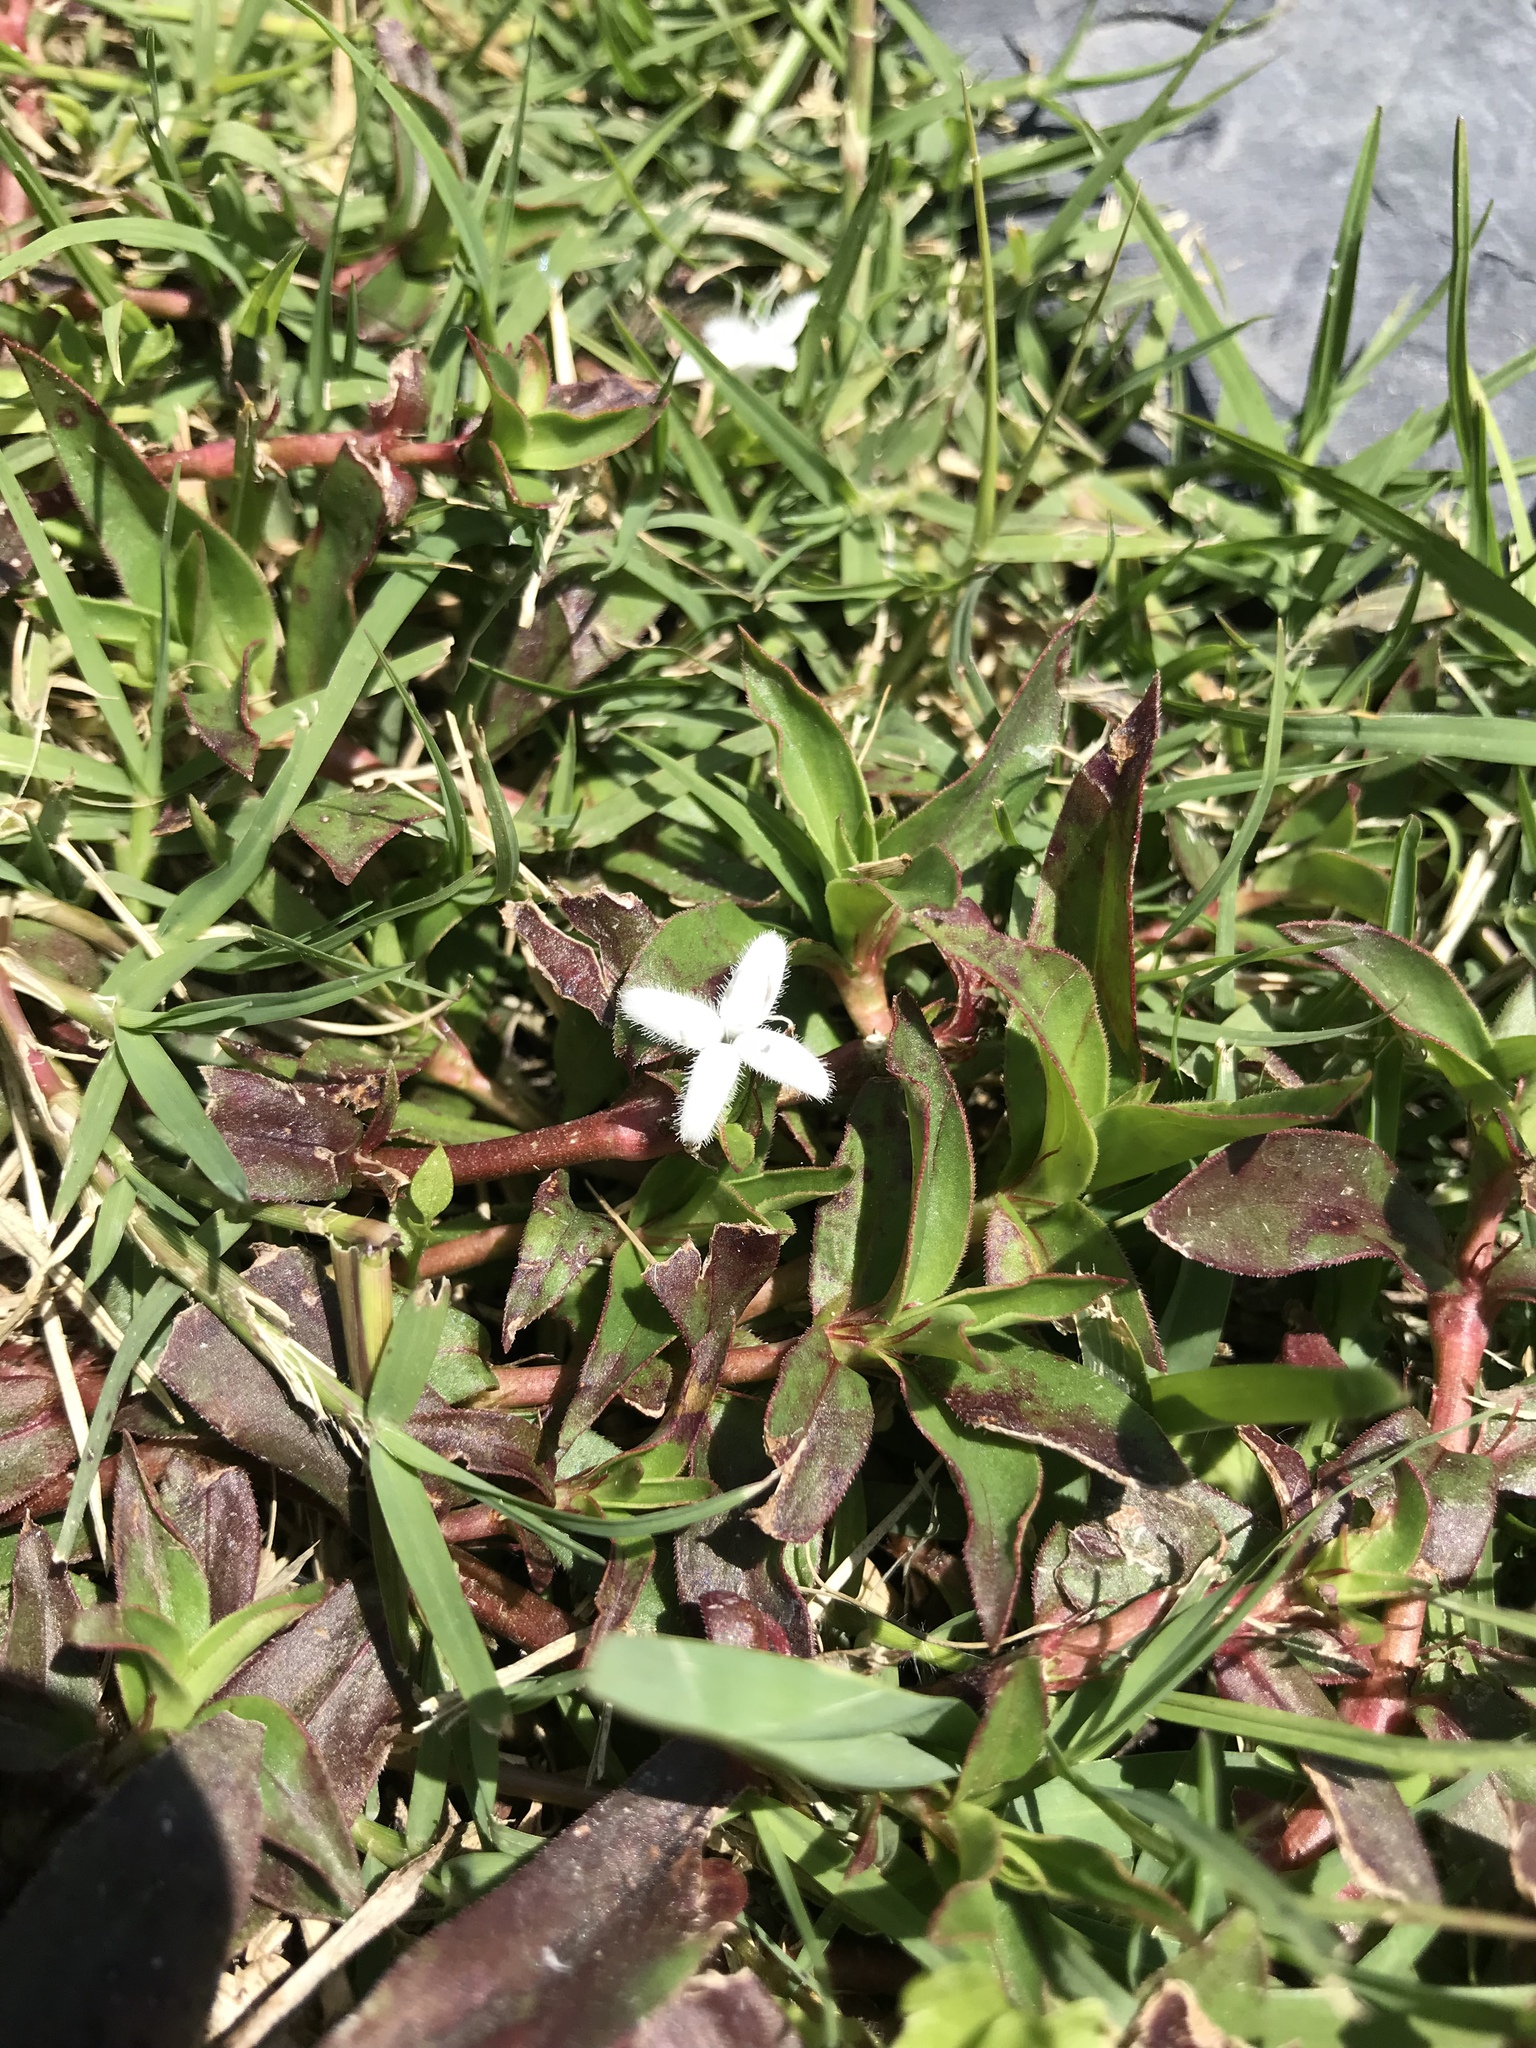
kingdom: Plantae
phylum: Tracheophyta
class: Magnoliopsida
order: Gentianales
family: Rubiaceae
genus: Diodia
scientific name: Diodia virginiana
